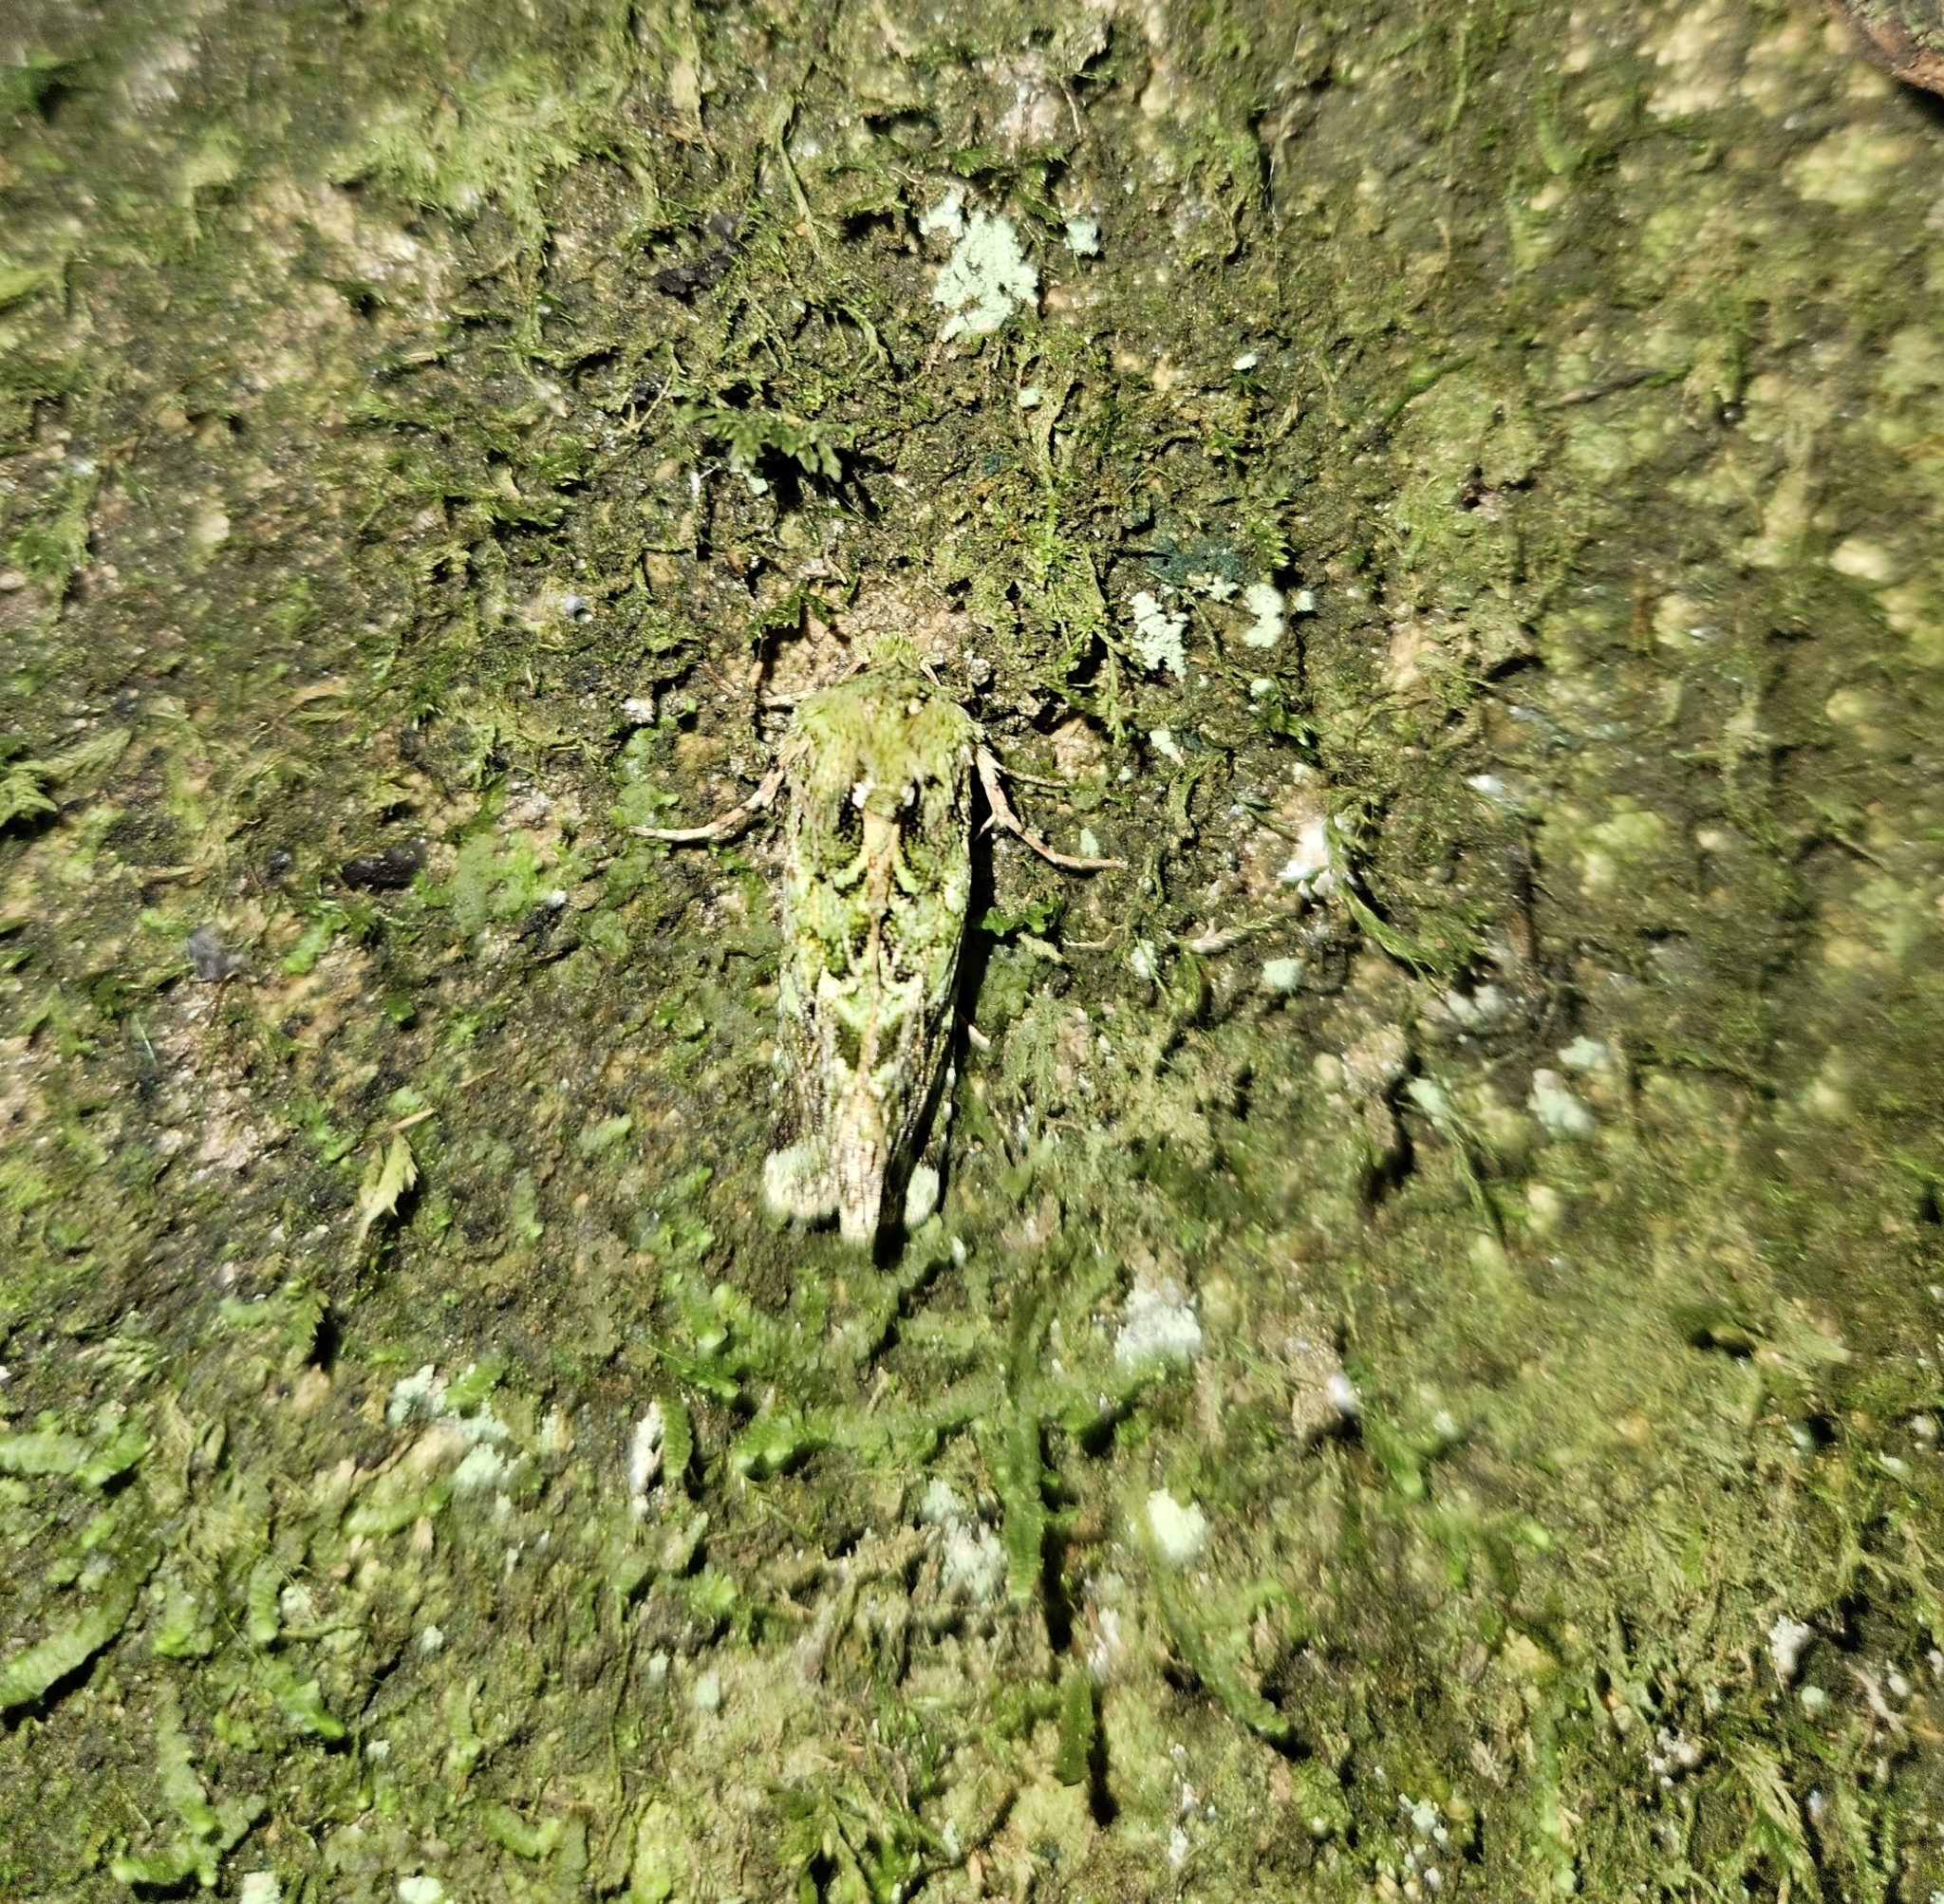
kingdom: Animalia
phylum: Arthropoda
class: Insecta
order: Lepidoptera
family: Noctuidae
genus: Feredayia
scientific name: Feredayia grammosa
